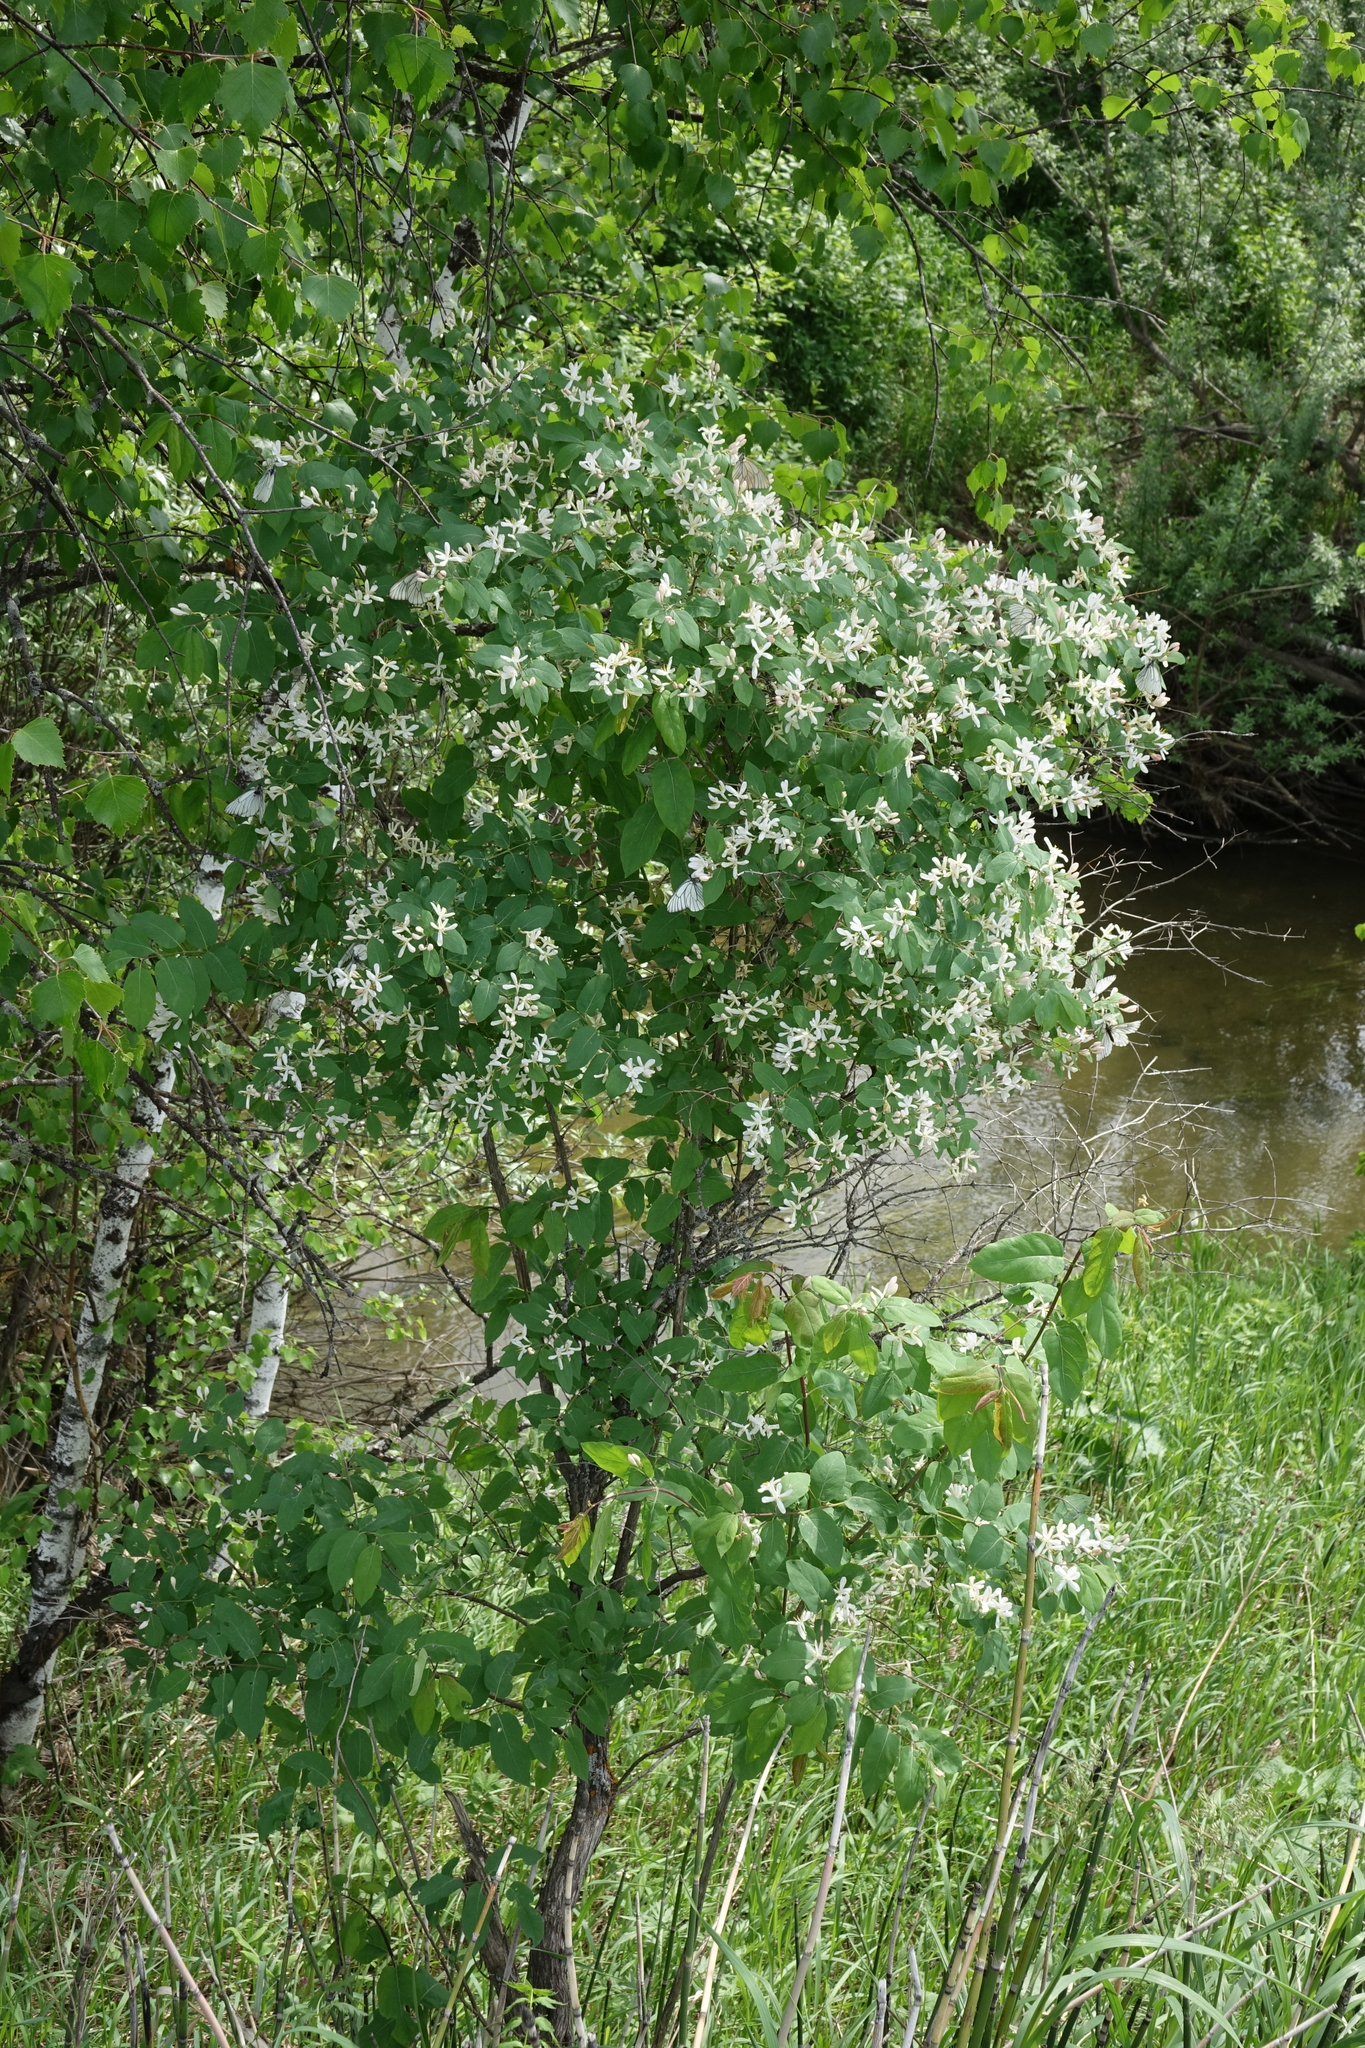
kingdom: Plantae
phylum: Tracheophyta
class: Magnoliopsida
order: Dipsacales
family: Caprifoliaceae
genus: Lonicera
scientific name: Lonicera tatarica
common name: Tatarian honeysuckle
